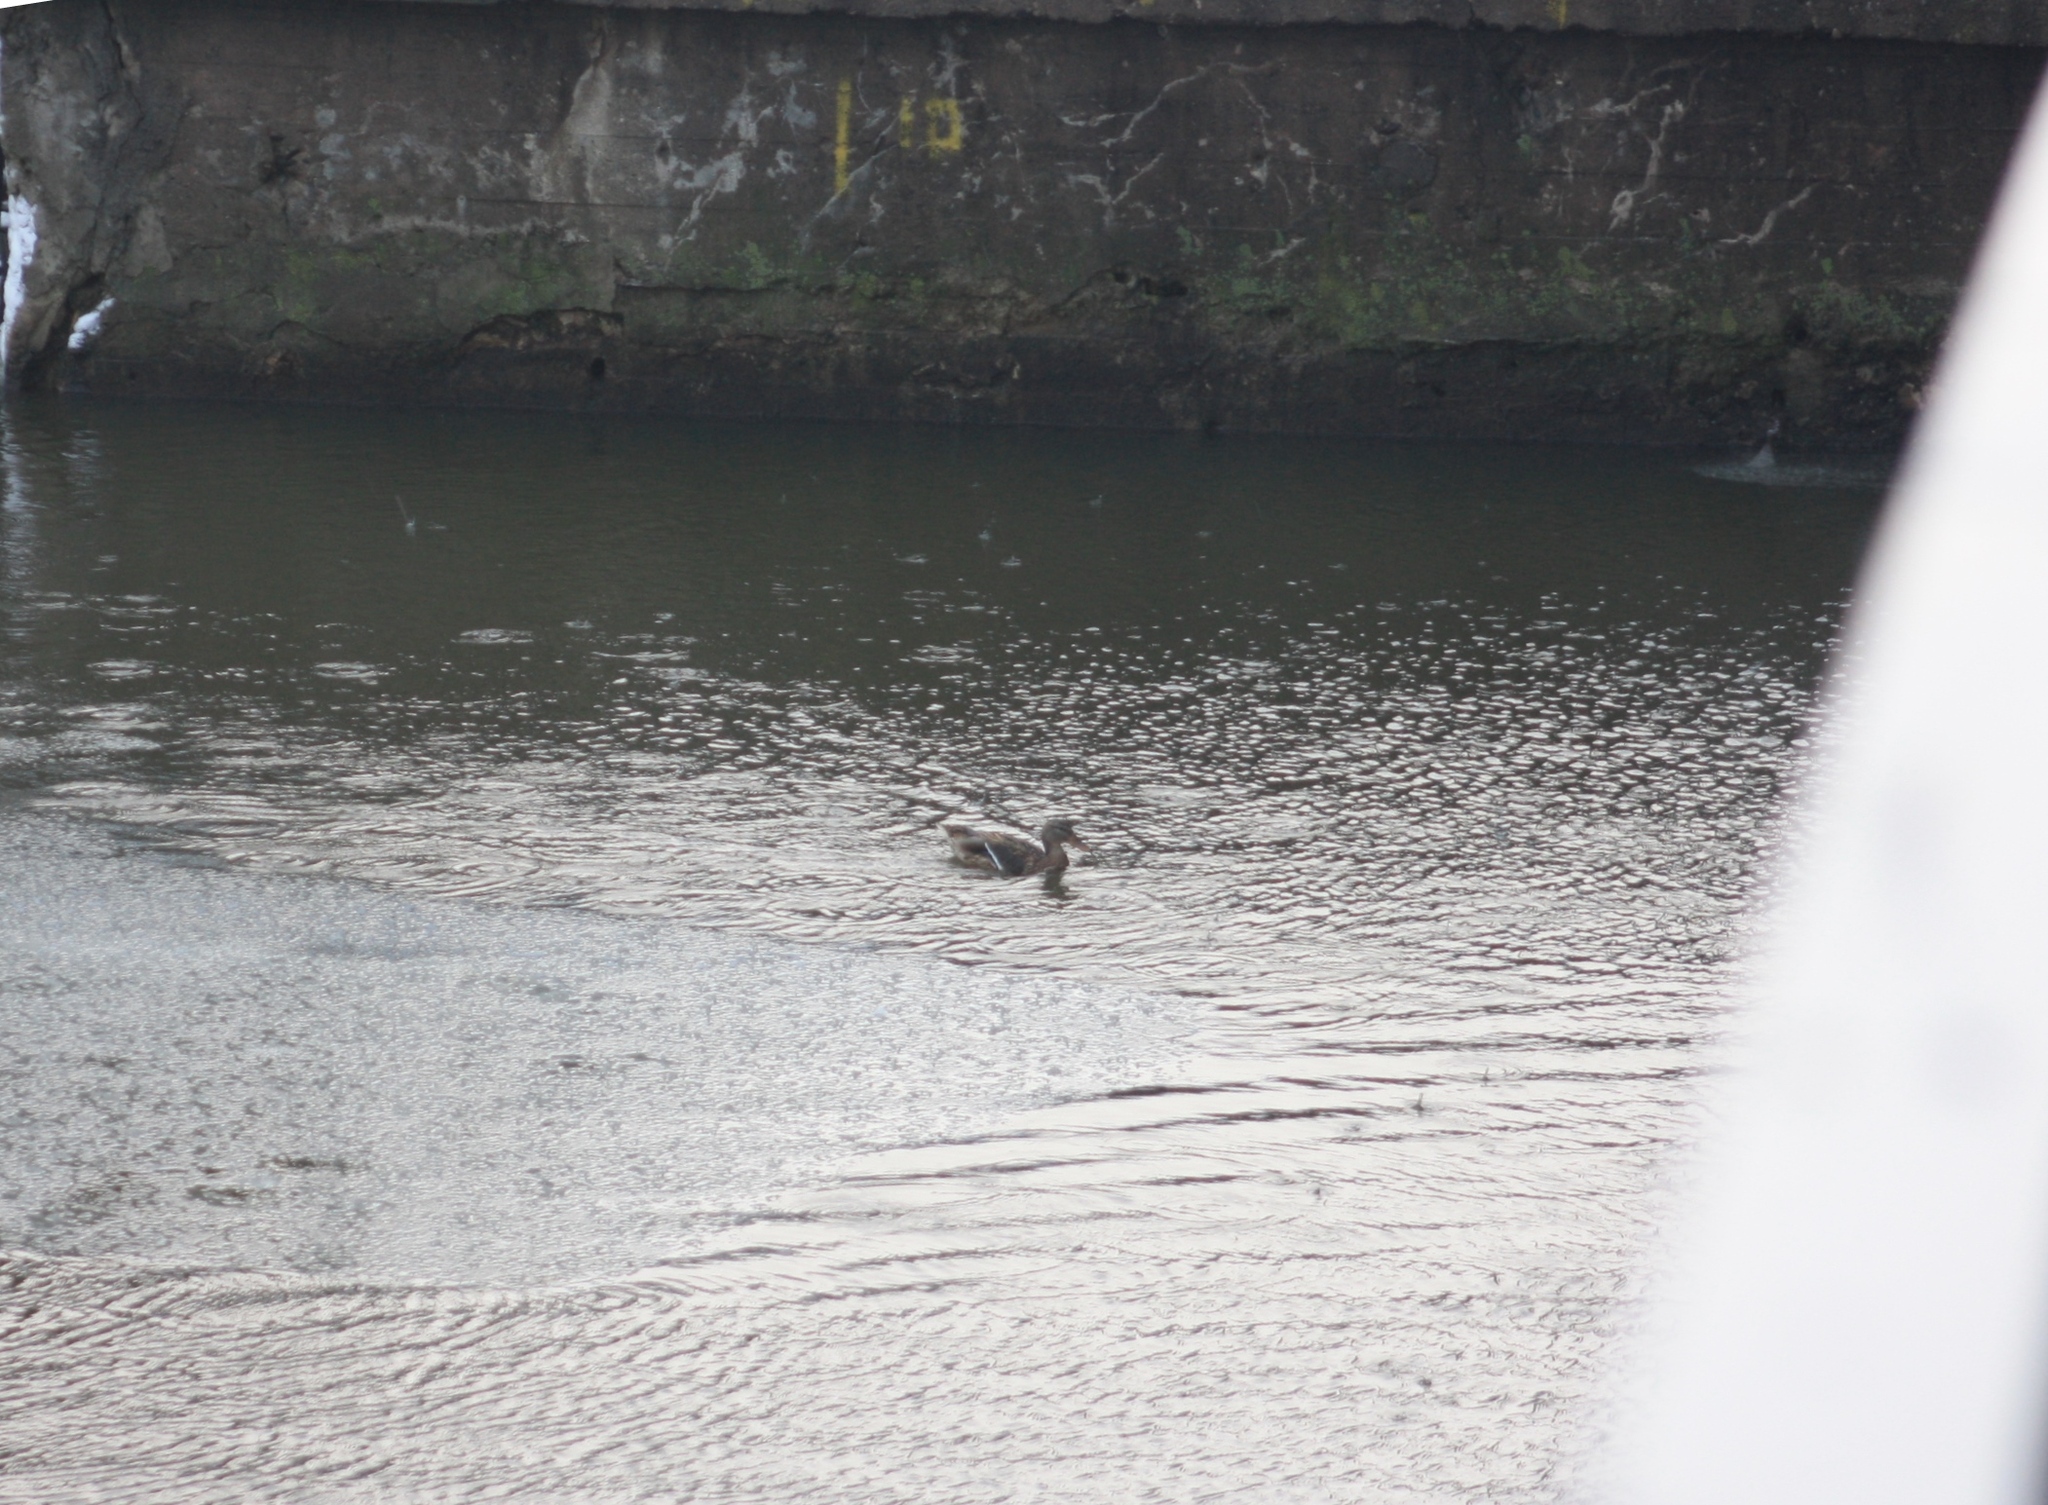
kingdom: Animalia
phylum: Chordata
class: Aves
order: Anseriformes
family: Anatidae
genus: Anas
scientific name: Anas platyrhynchos
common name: Mallard
